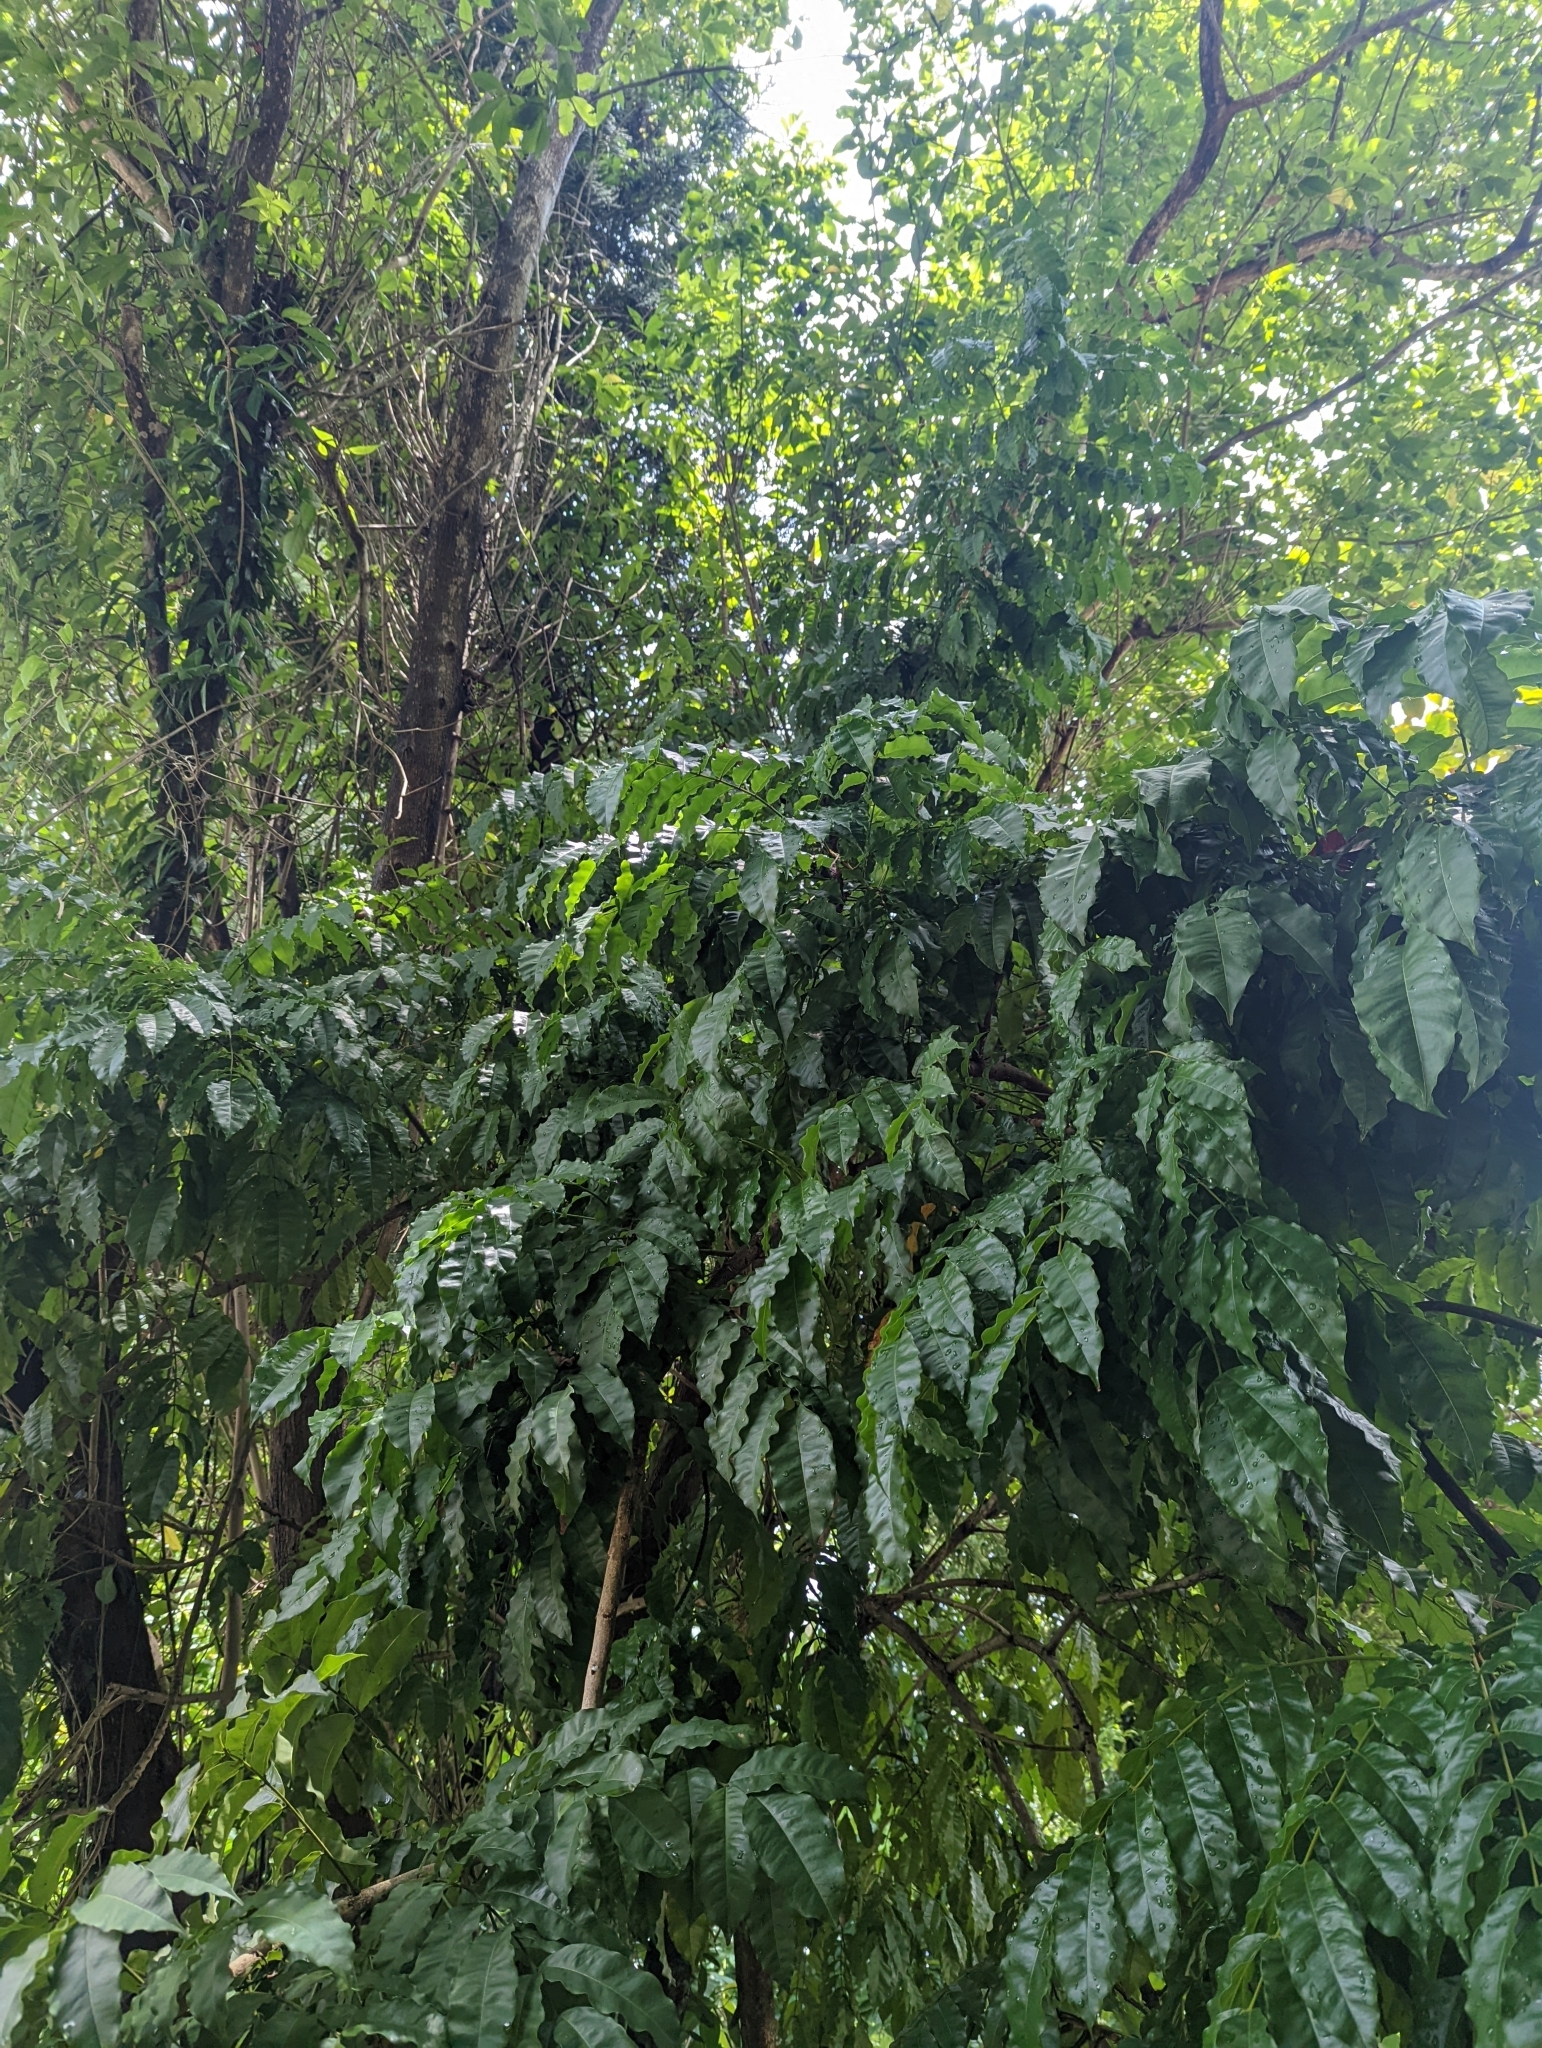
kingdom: Plantae
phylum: Tracheophyta
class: Magnoliopsida
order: Fabales
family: Fabaceae
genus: Andira
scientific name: Andira inermis
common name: Angelin
